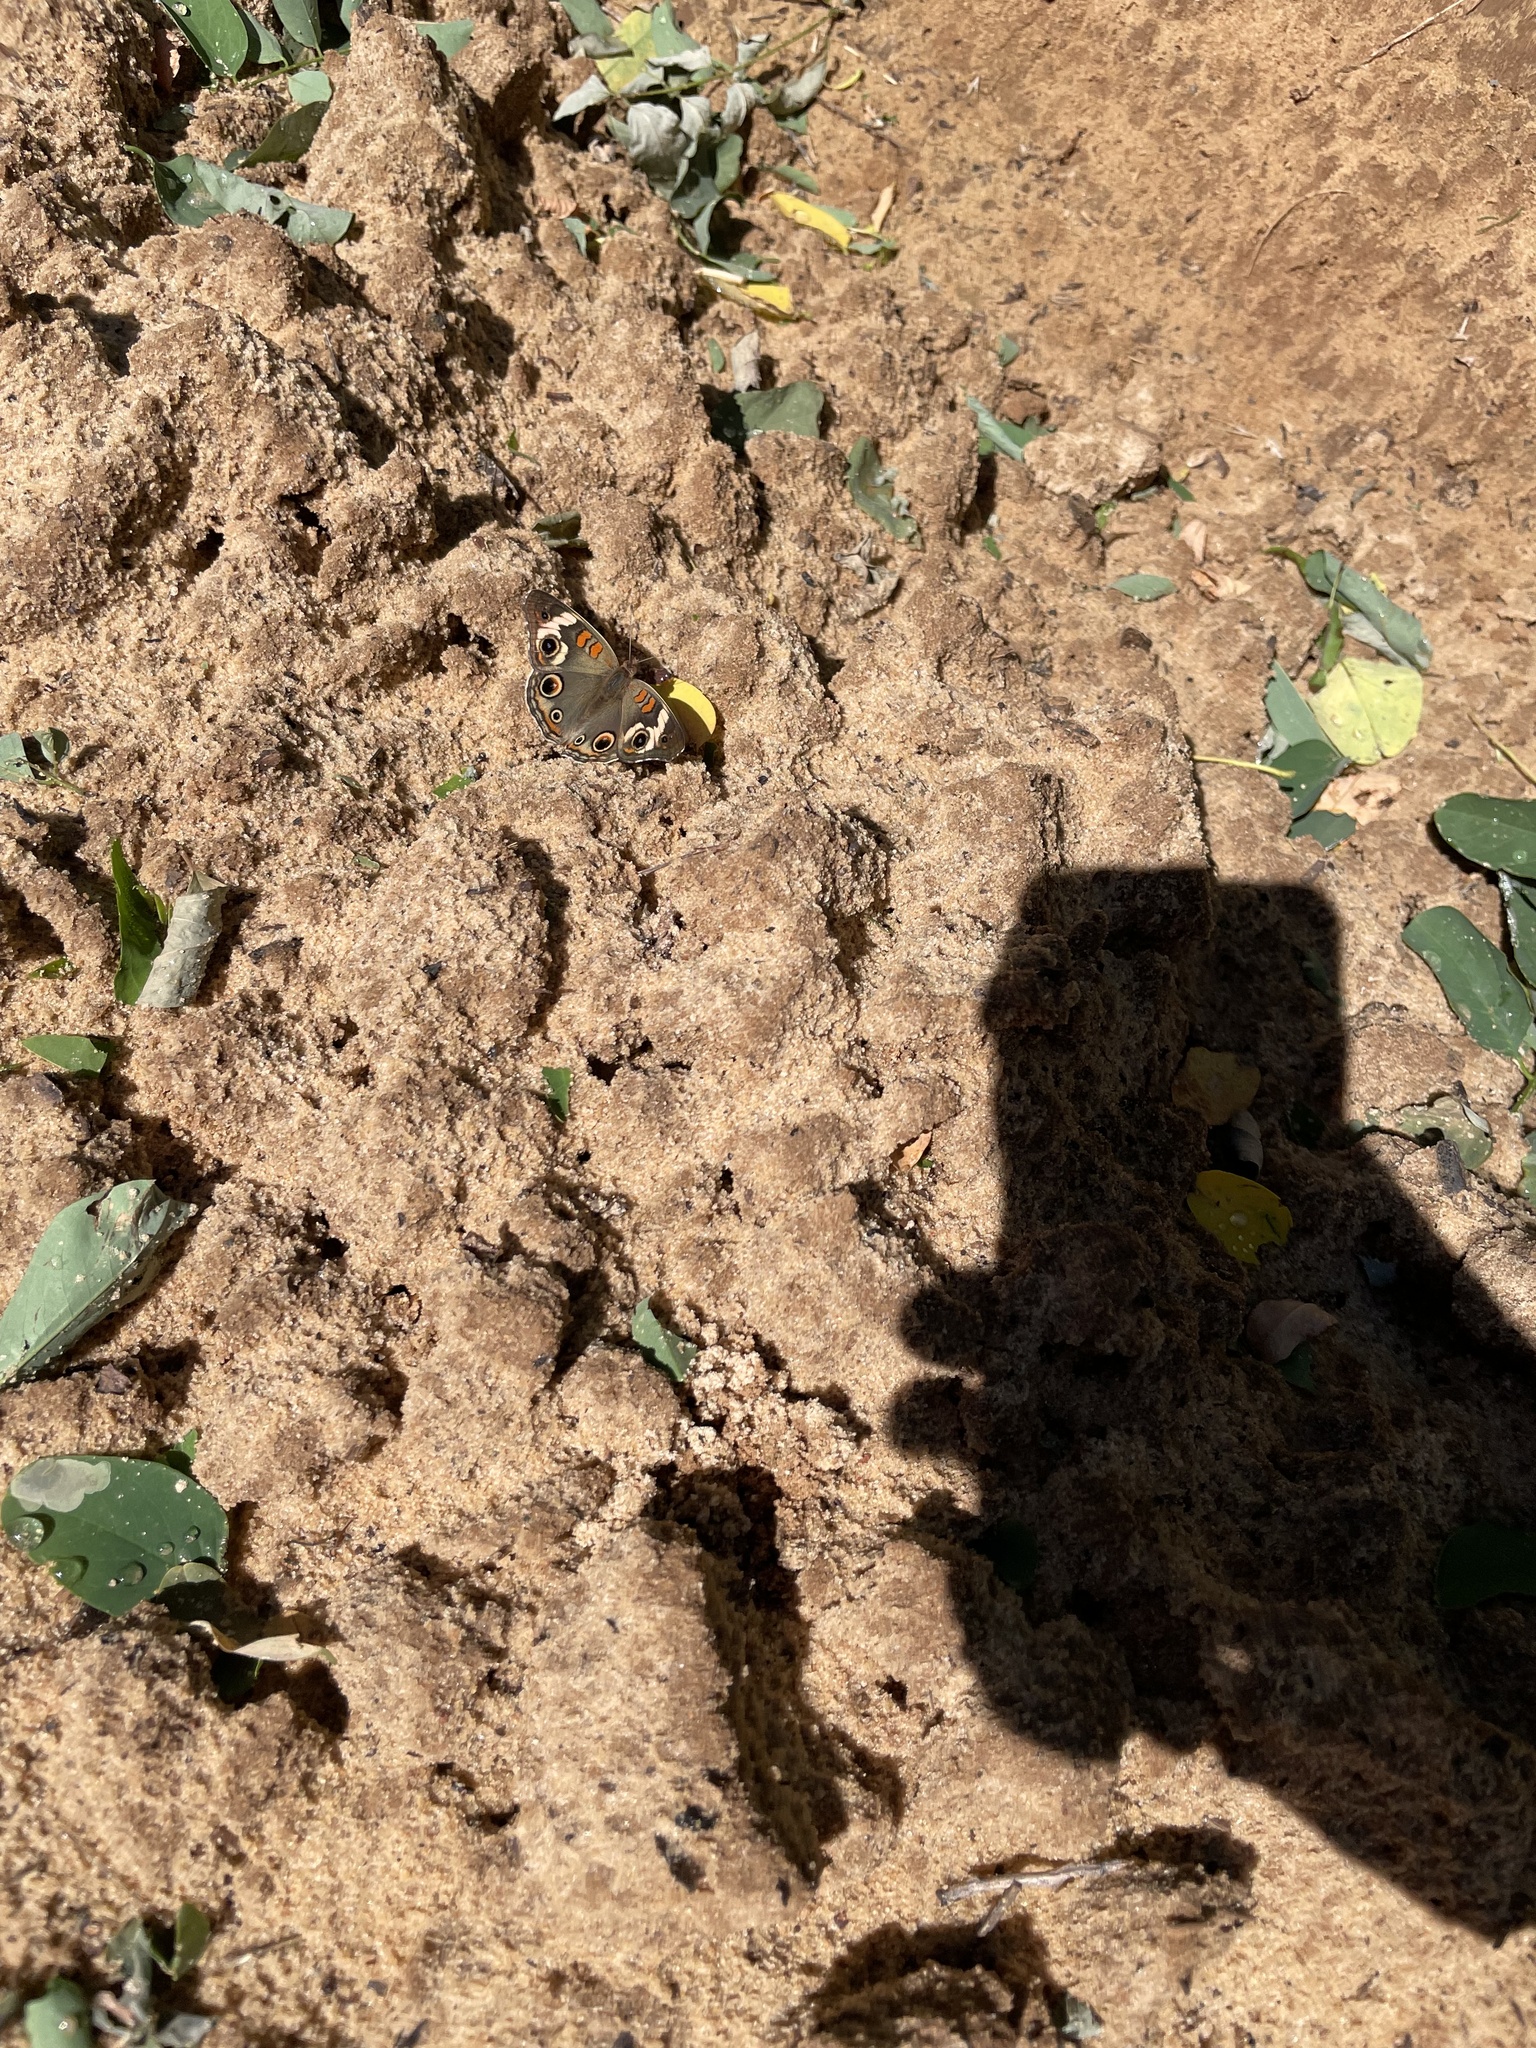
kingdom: Animalia
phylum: Arthropoda
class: Insecta
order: Lepidoptera
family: Nymphalidae
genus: Junonia
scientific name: Junonia coenia
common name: Common buckeye
